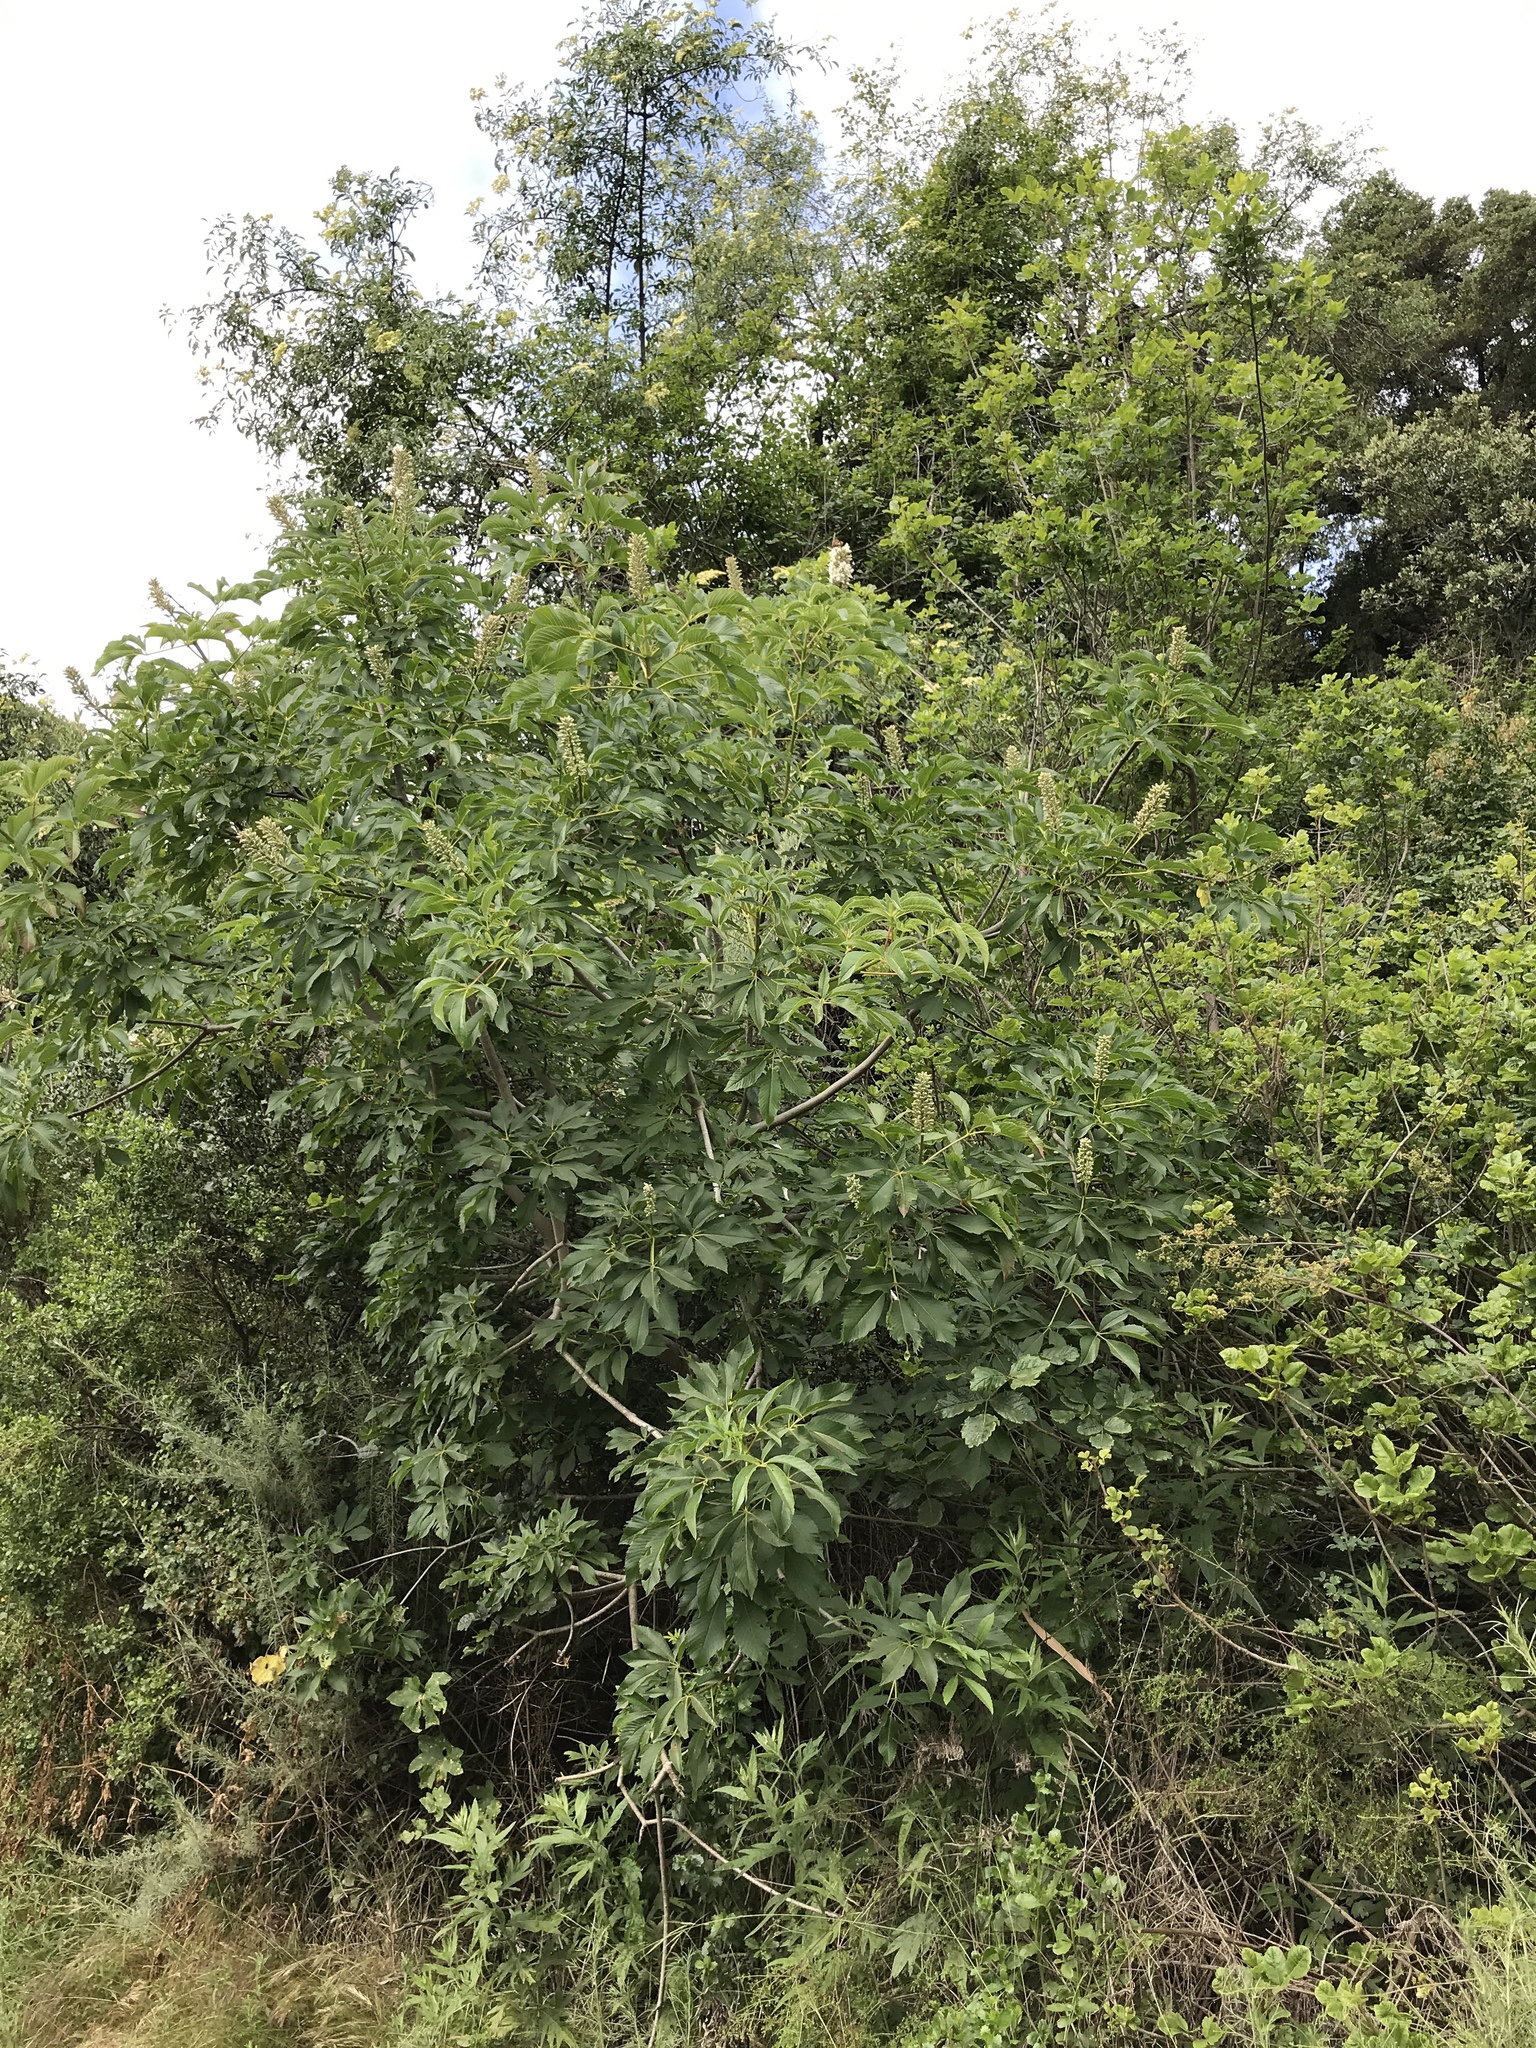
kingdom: Plantae
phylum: Tracheophyta
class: Magnoliopsida
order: Sapindales
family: Sapindaceae
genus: Aesculus
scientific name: Aesculus californica
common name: California buckeye
